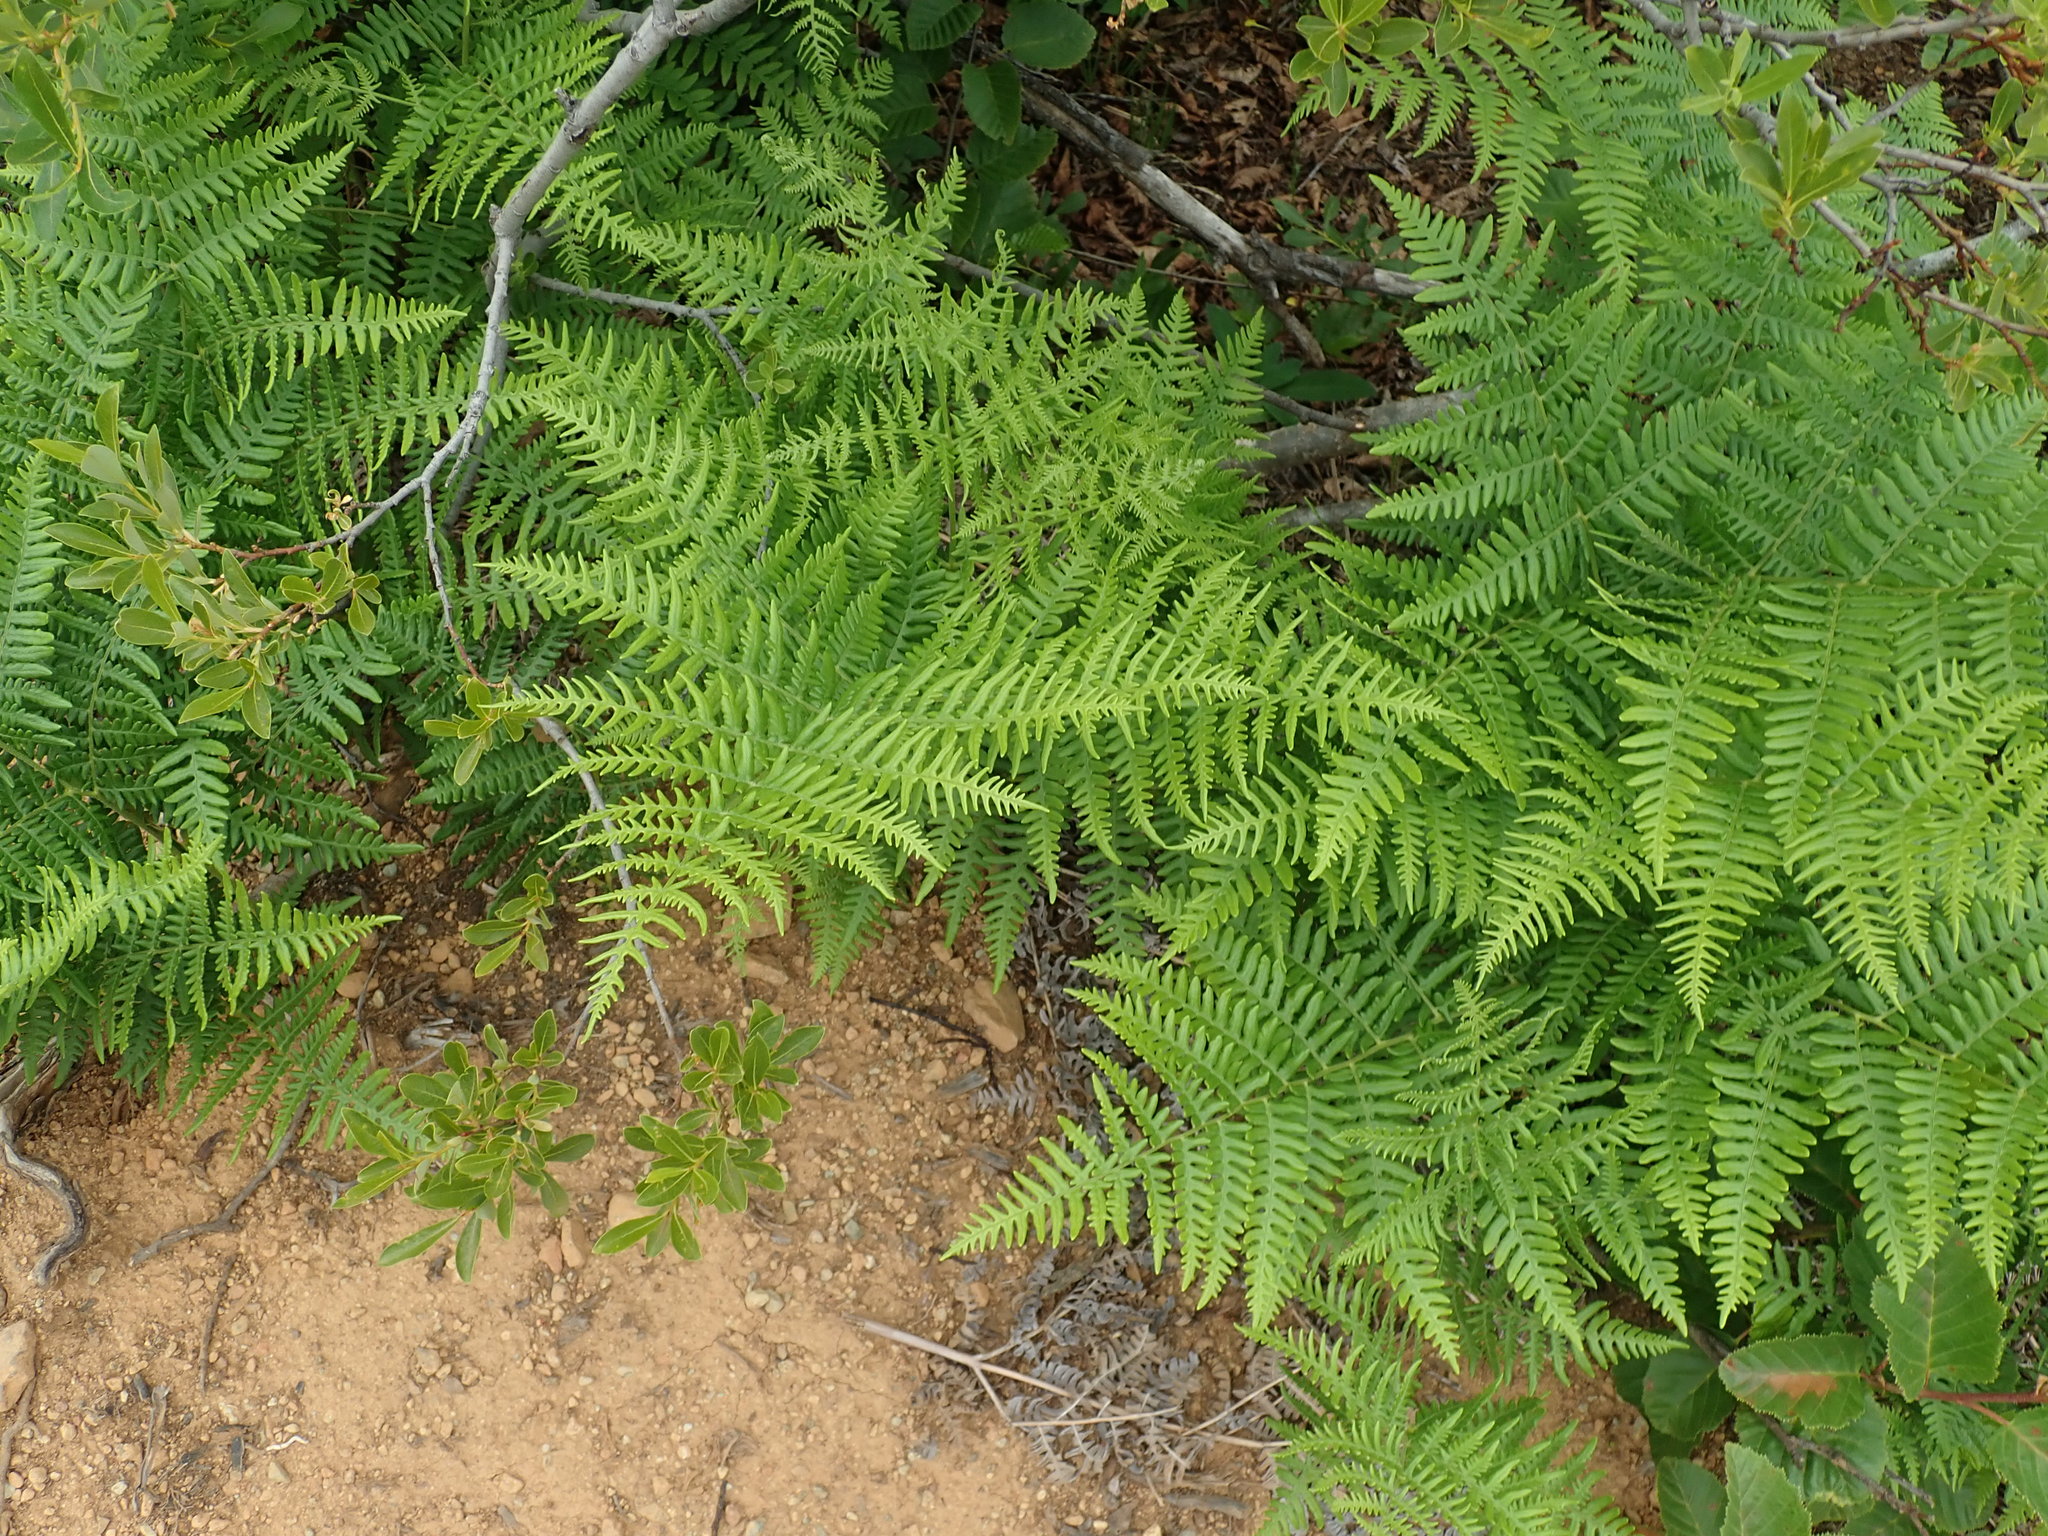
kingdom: Plantae
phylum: Tracheophyta
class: Polypodiopsida
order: Polypodiales
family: Dennstaedtiaceae
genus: Pteridium
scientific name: Pteridium aquilinum
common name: Bracken
